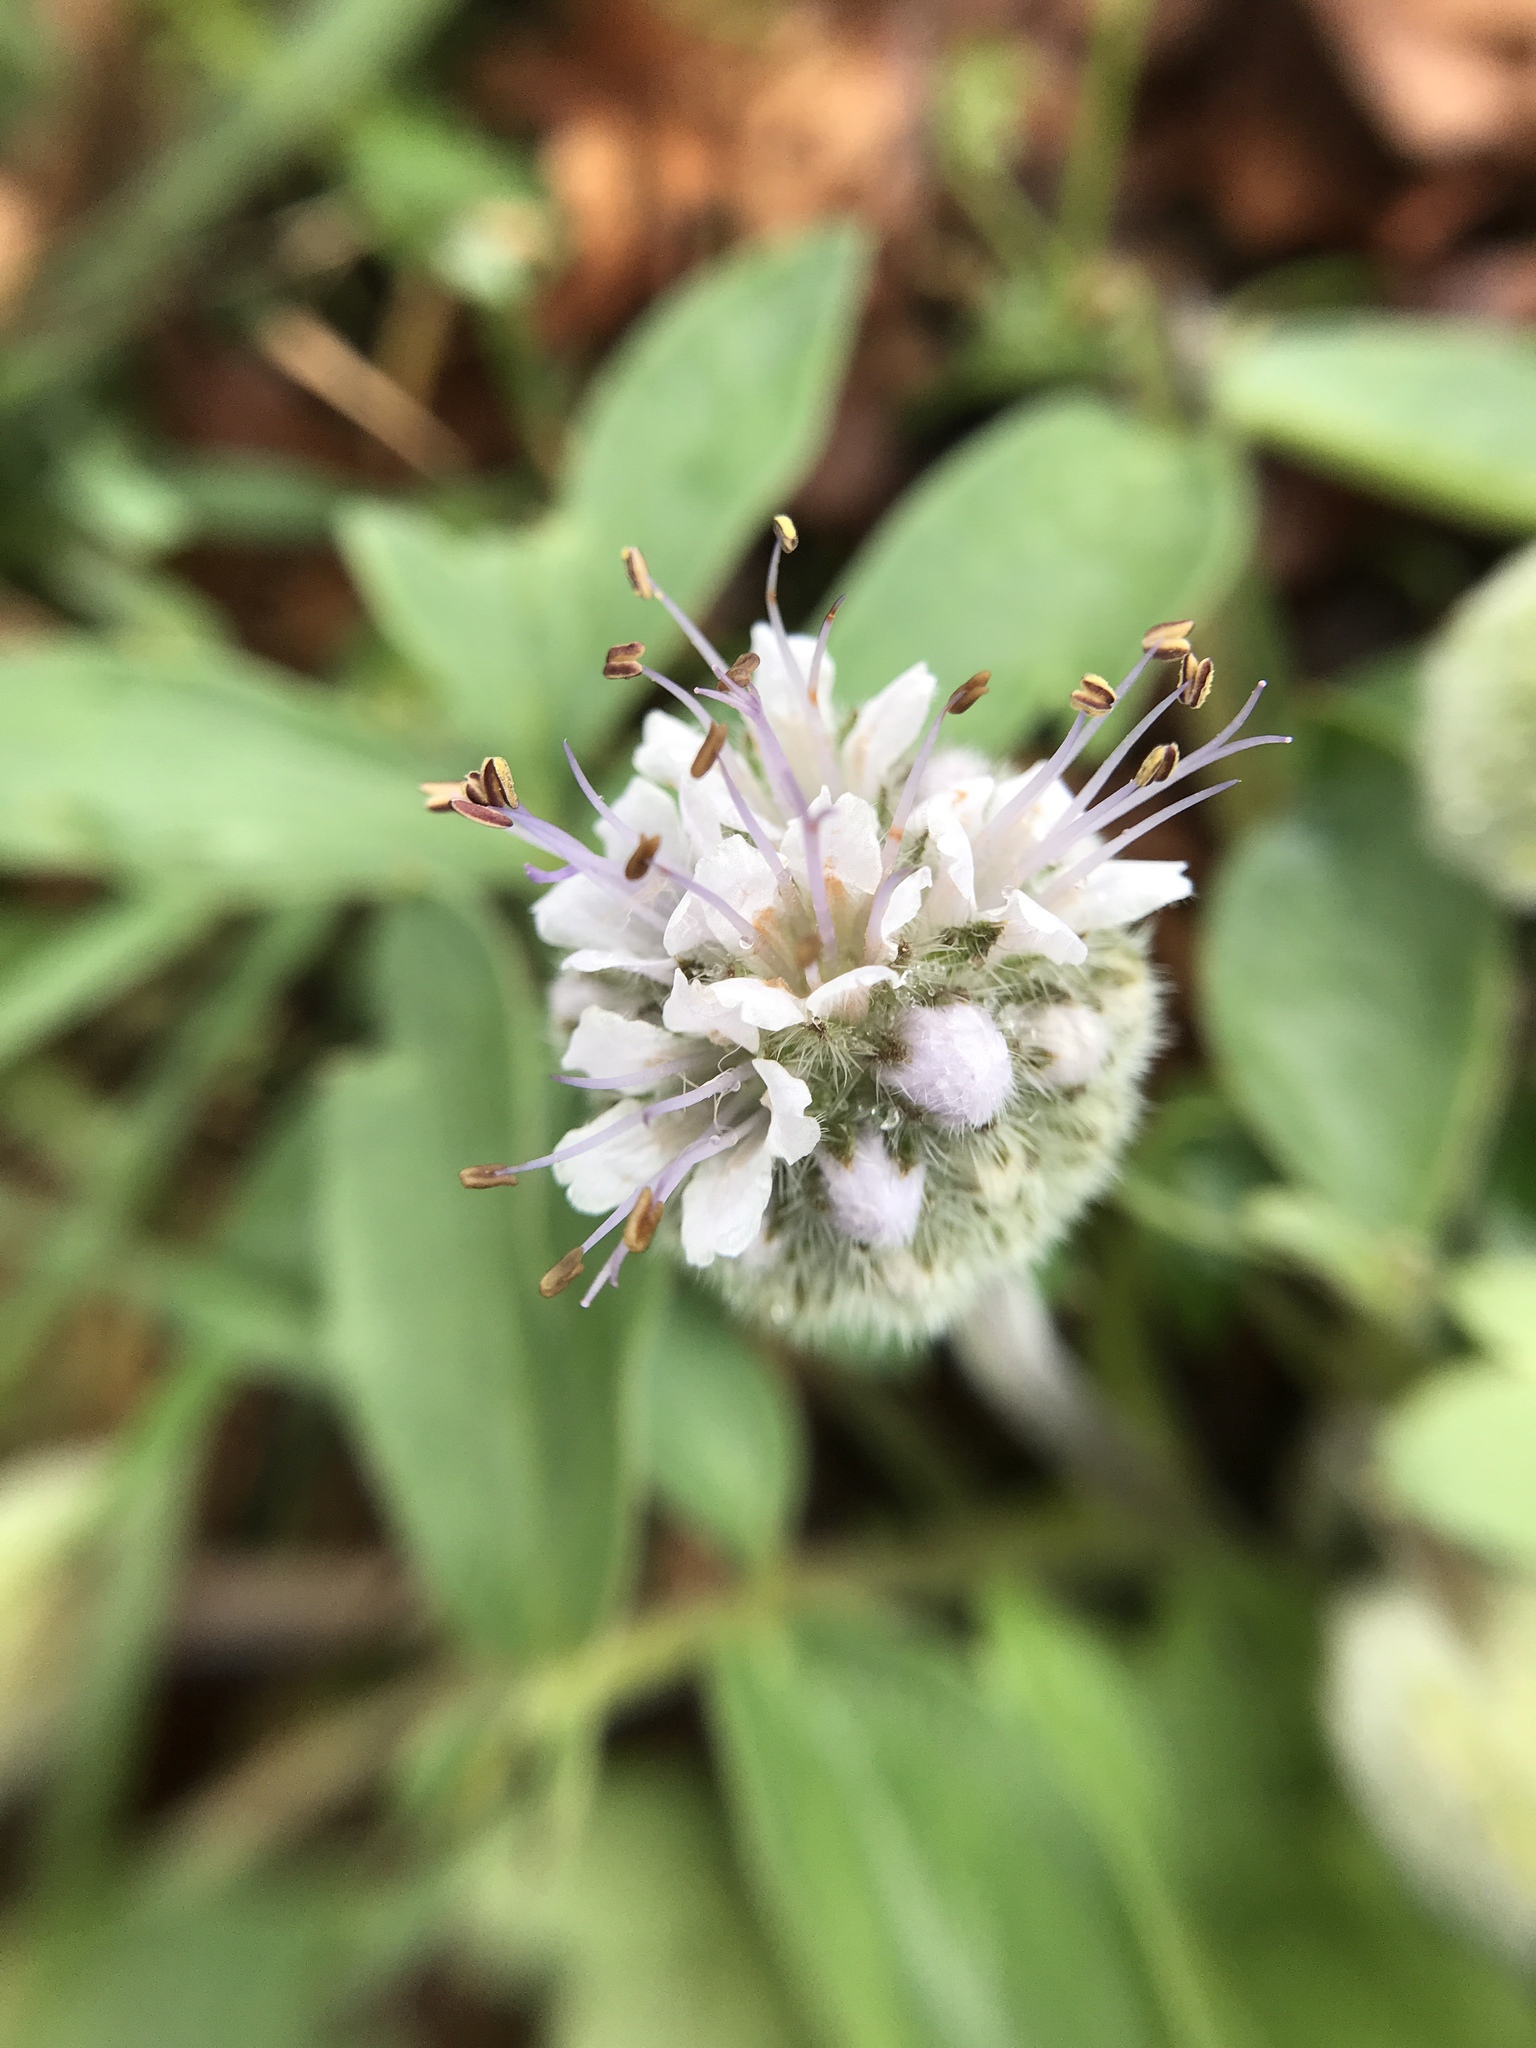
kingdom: Plantae
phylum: Tracheophyta
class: Magnoliopsida
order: Boraginales
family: Hydrophyllaceae
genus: Hydrophyllum
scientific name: Hydrophyllum capitatum
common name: Woollen-breeches
